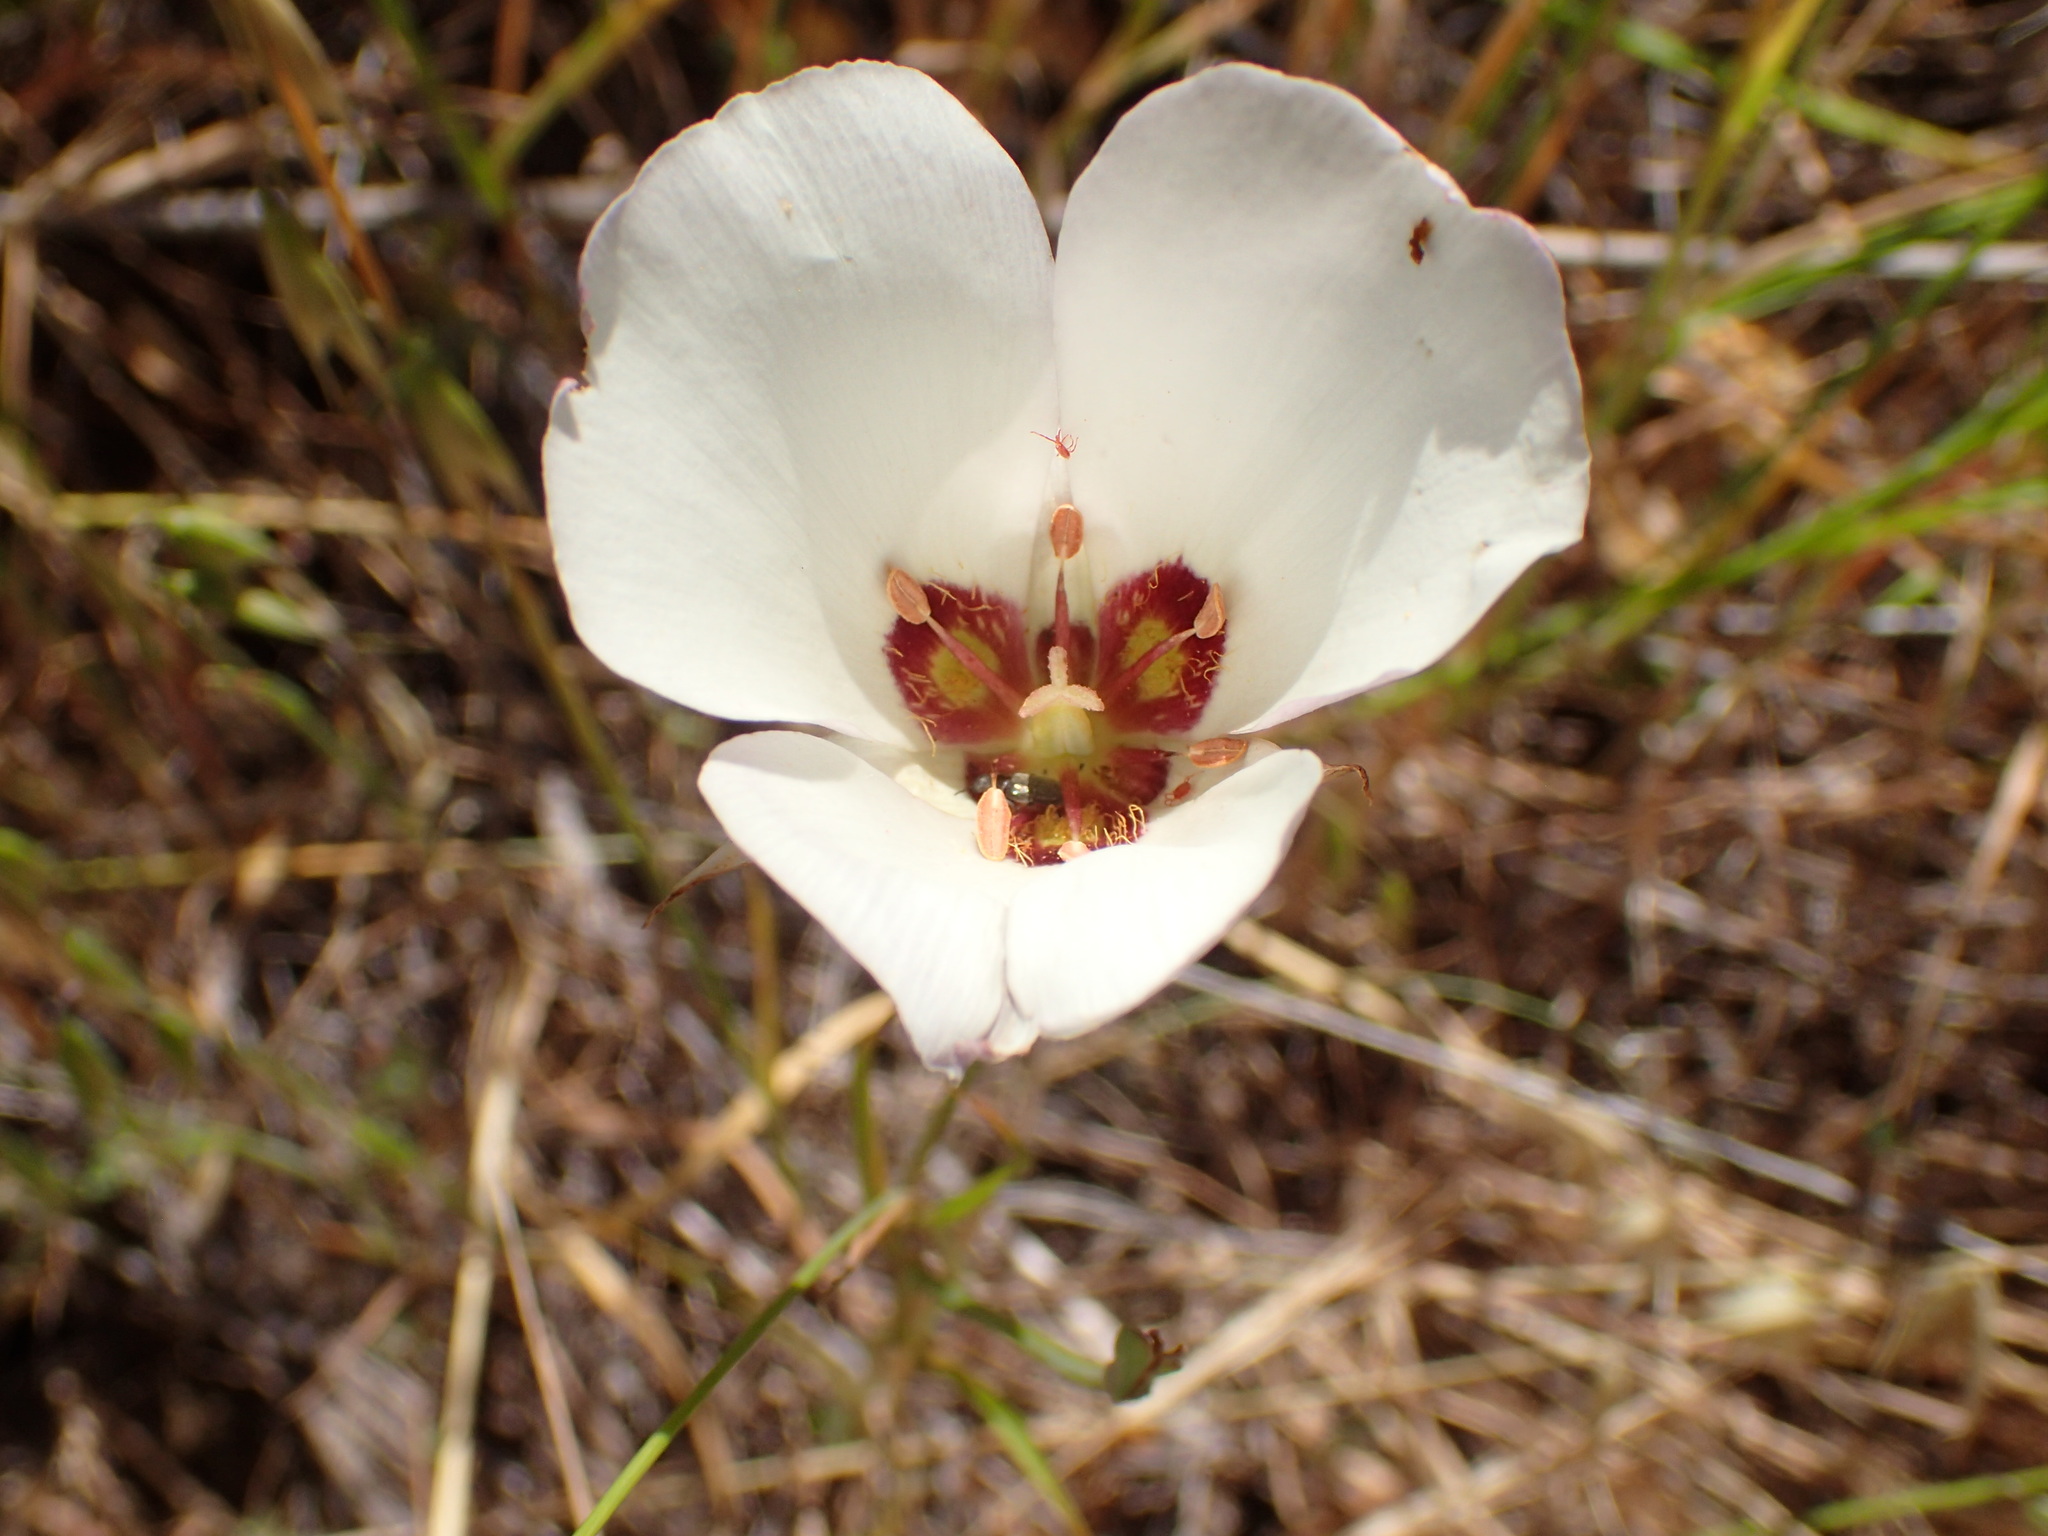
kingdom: Plantae
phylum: Tracheophyta
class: Liliopsida
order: Liliales
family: Liliaceae
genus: Calochortus
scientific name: Calochortus catalinae
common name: Catalina mariposa-lily
